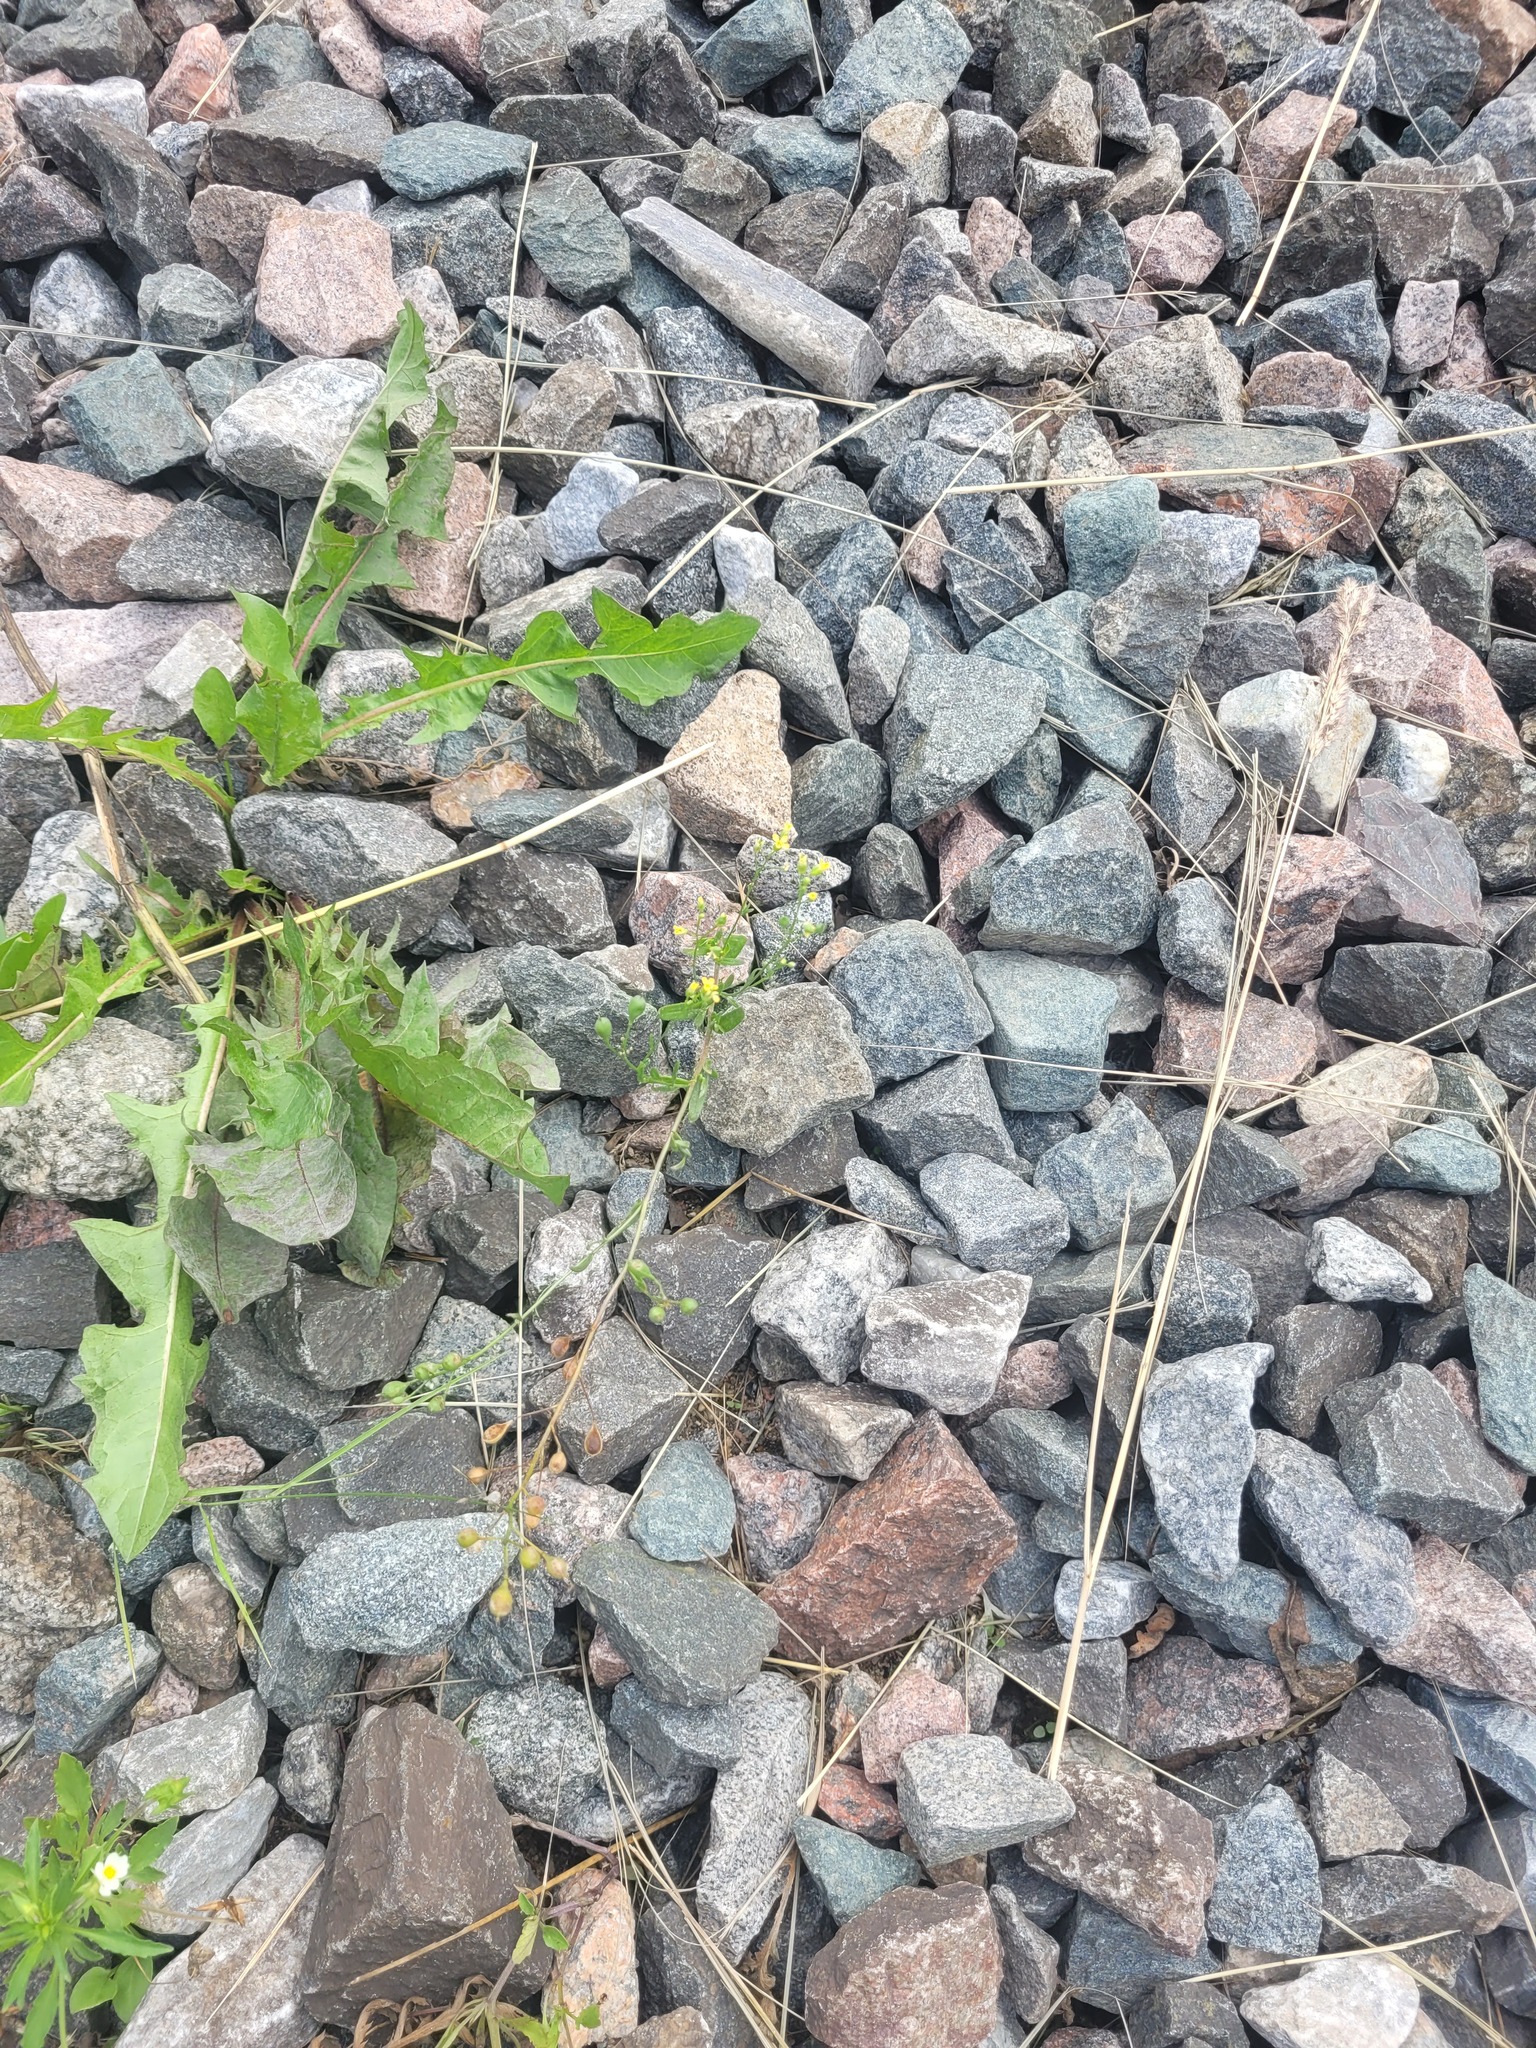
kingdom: Plantae
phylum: Tracheophyta
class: Magnoliopsida
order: Brassicales
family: Brassicaceae
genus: Camelina
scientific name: Camelina sativa
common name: Gold-of-pleasure
